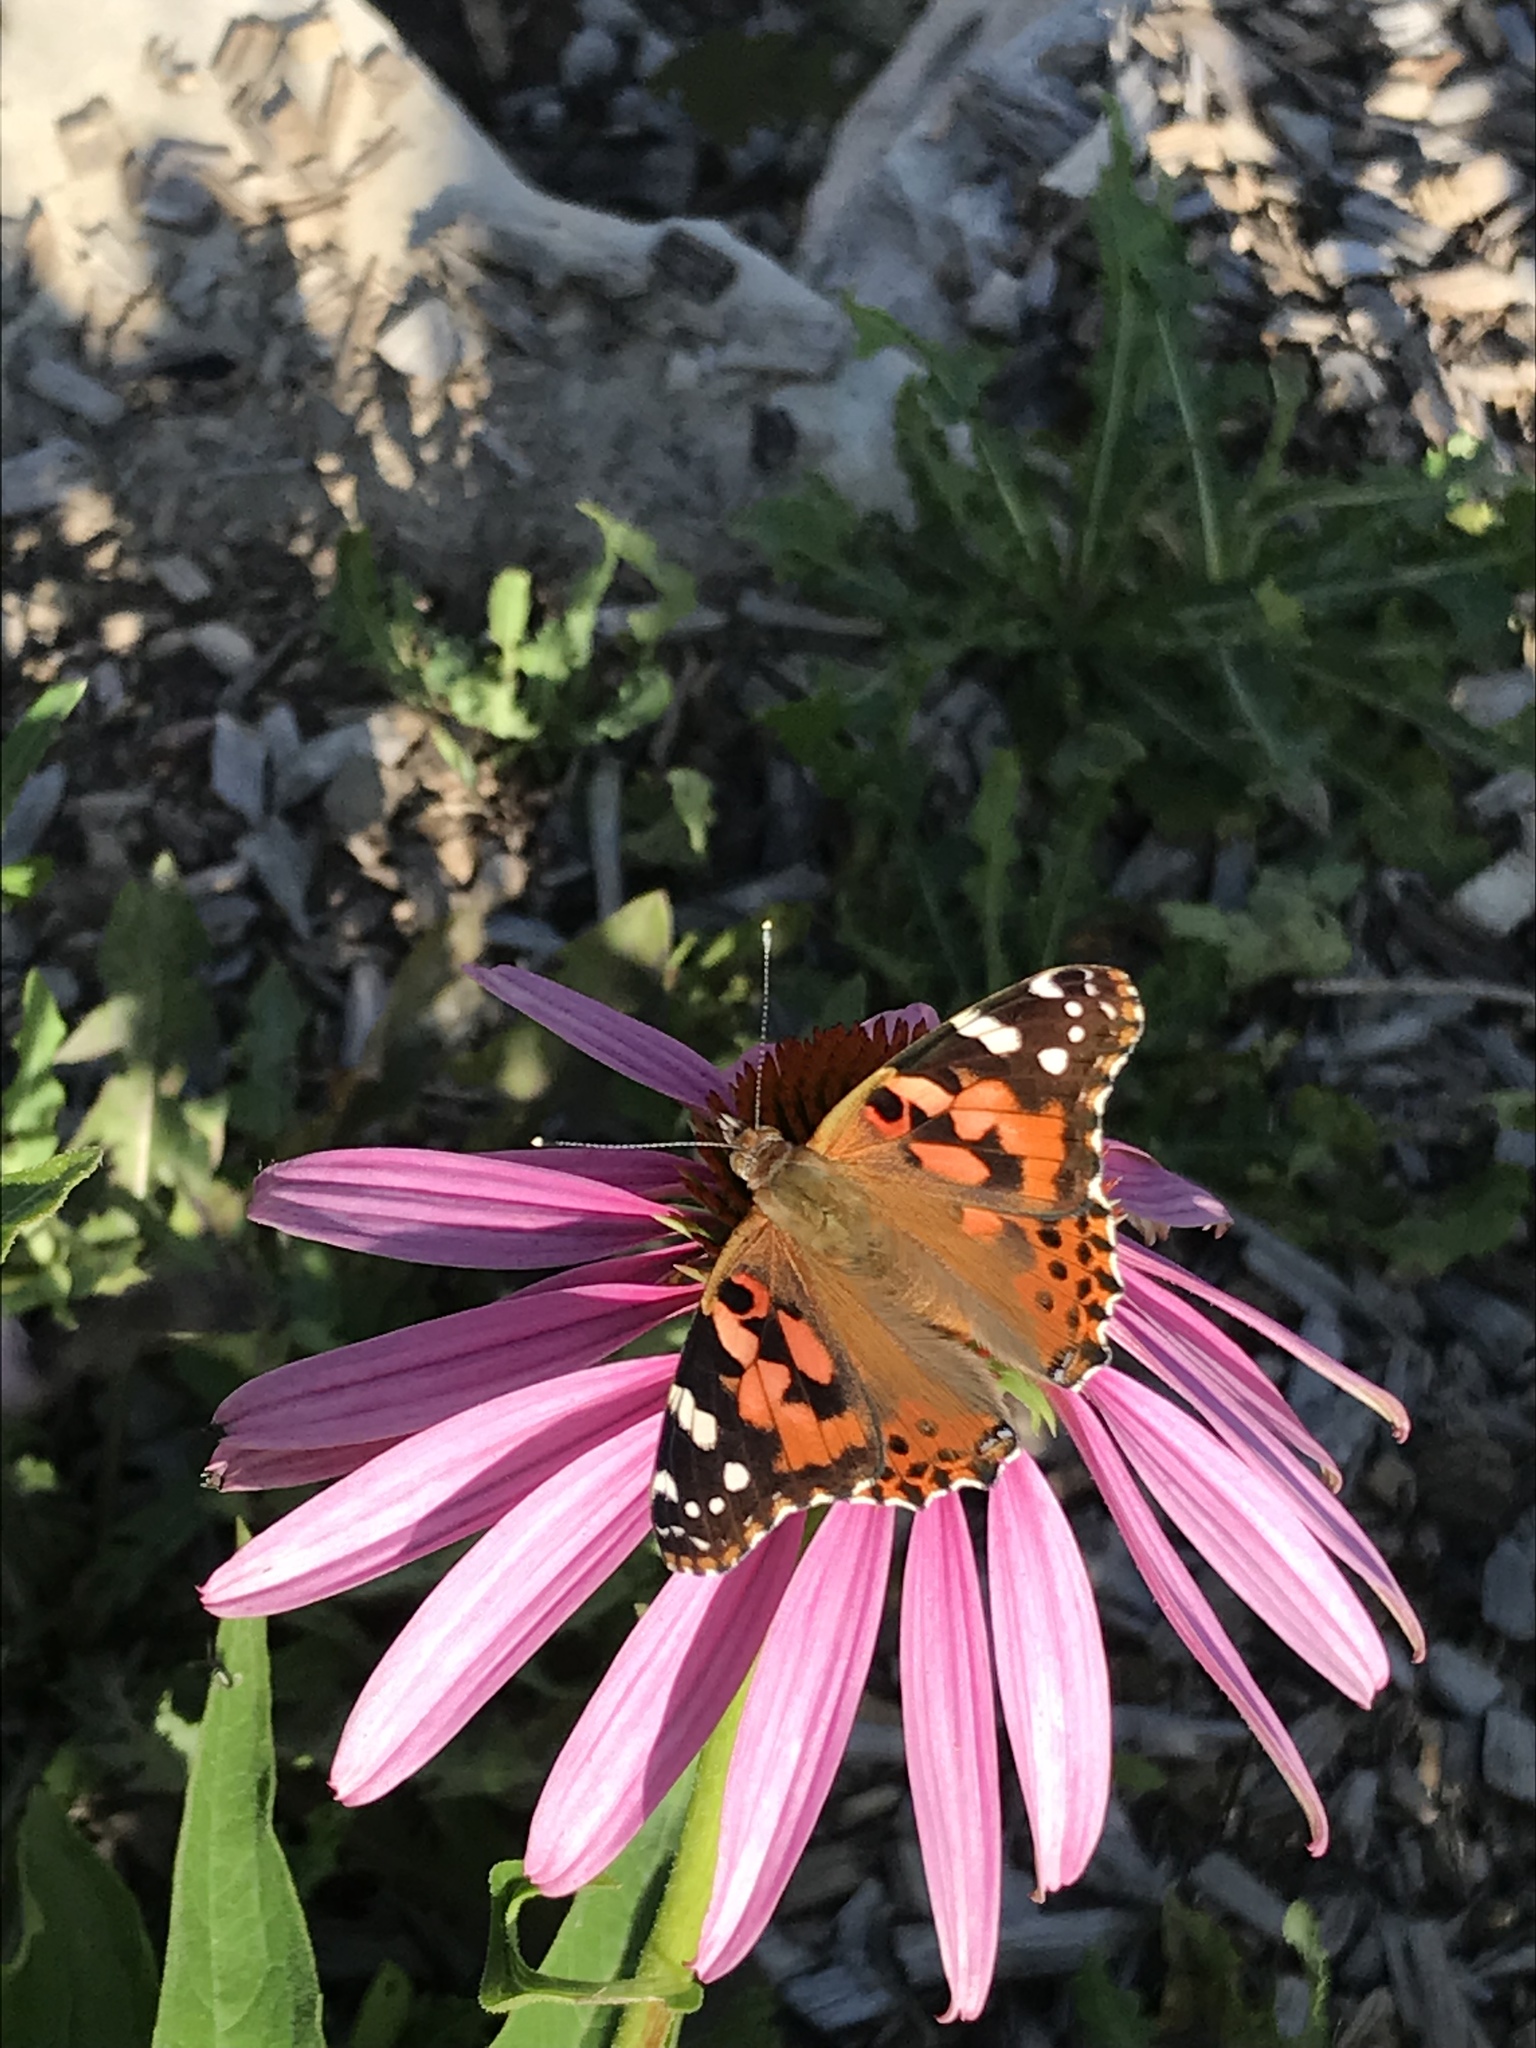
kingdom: Animalia
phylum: Arthropoda
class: Insecta
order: Lepidoptera
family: Nymphalidae
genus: Vanessa
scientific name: Vanessa cardui
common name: Painted lady
